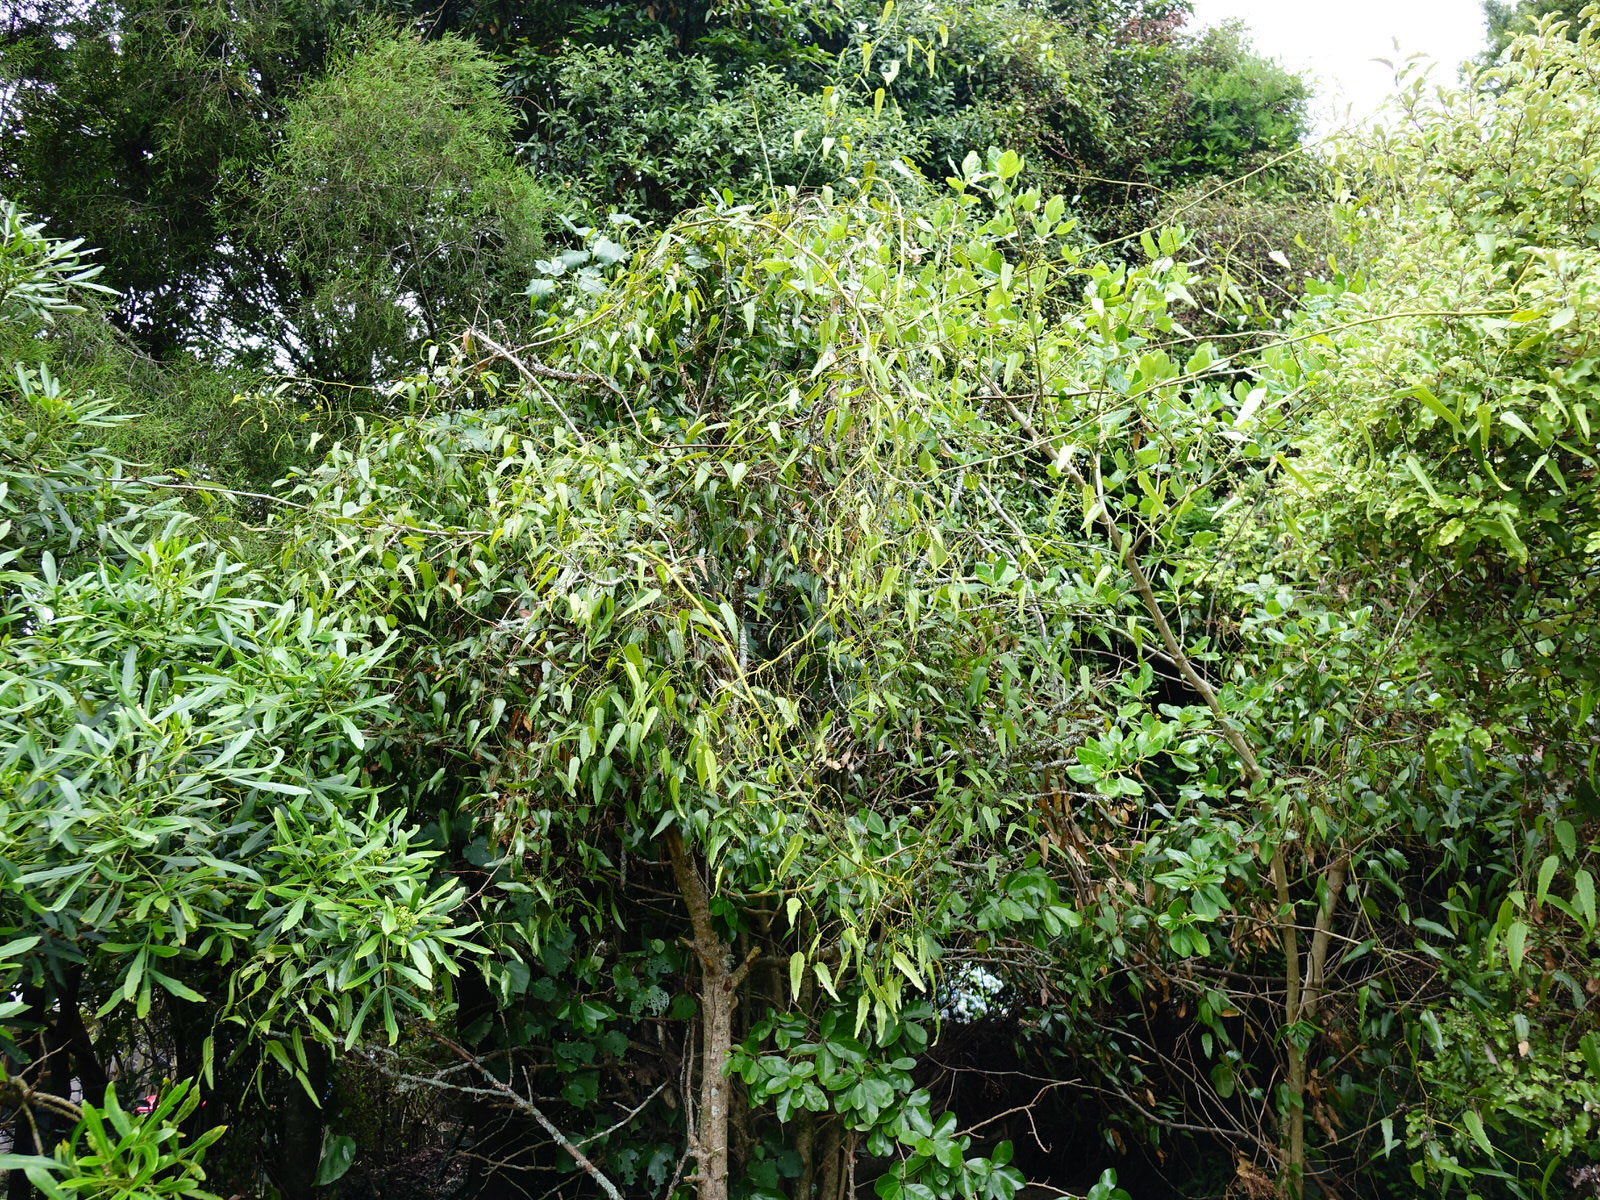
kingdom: Plantae
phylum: Tracheophyta
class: Magnoliopsida
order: Rosales
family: Rosaceae
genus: Rubus
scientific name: Rubus squarrosus
